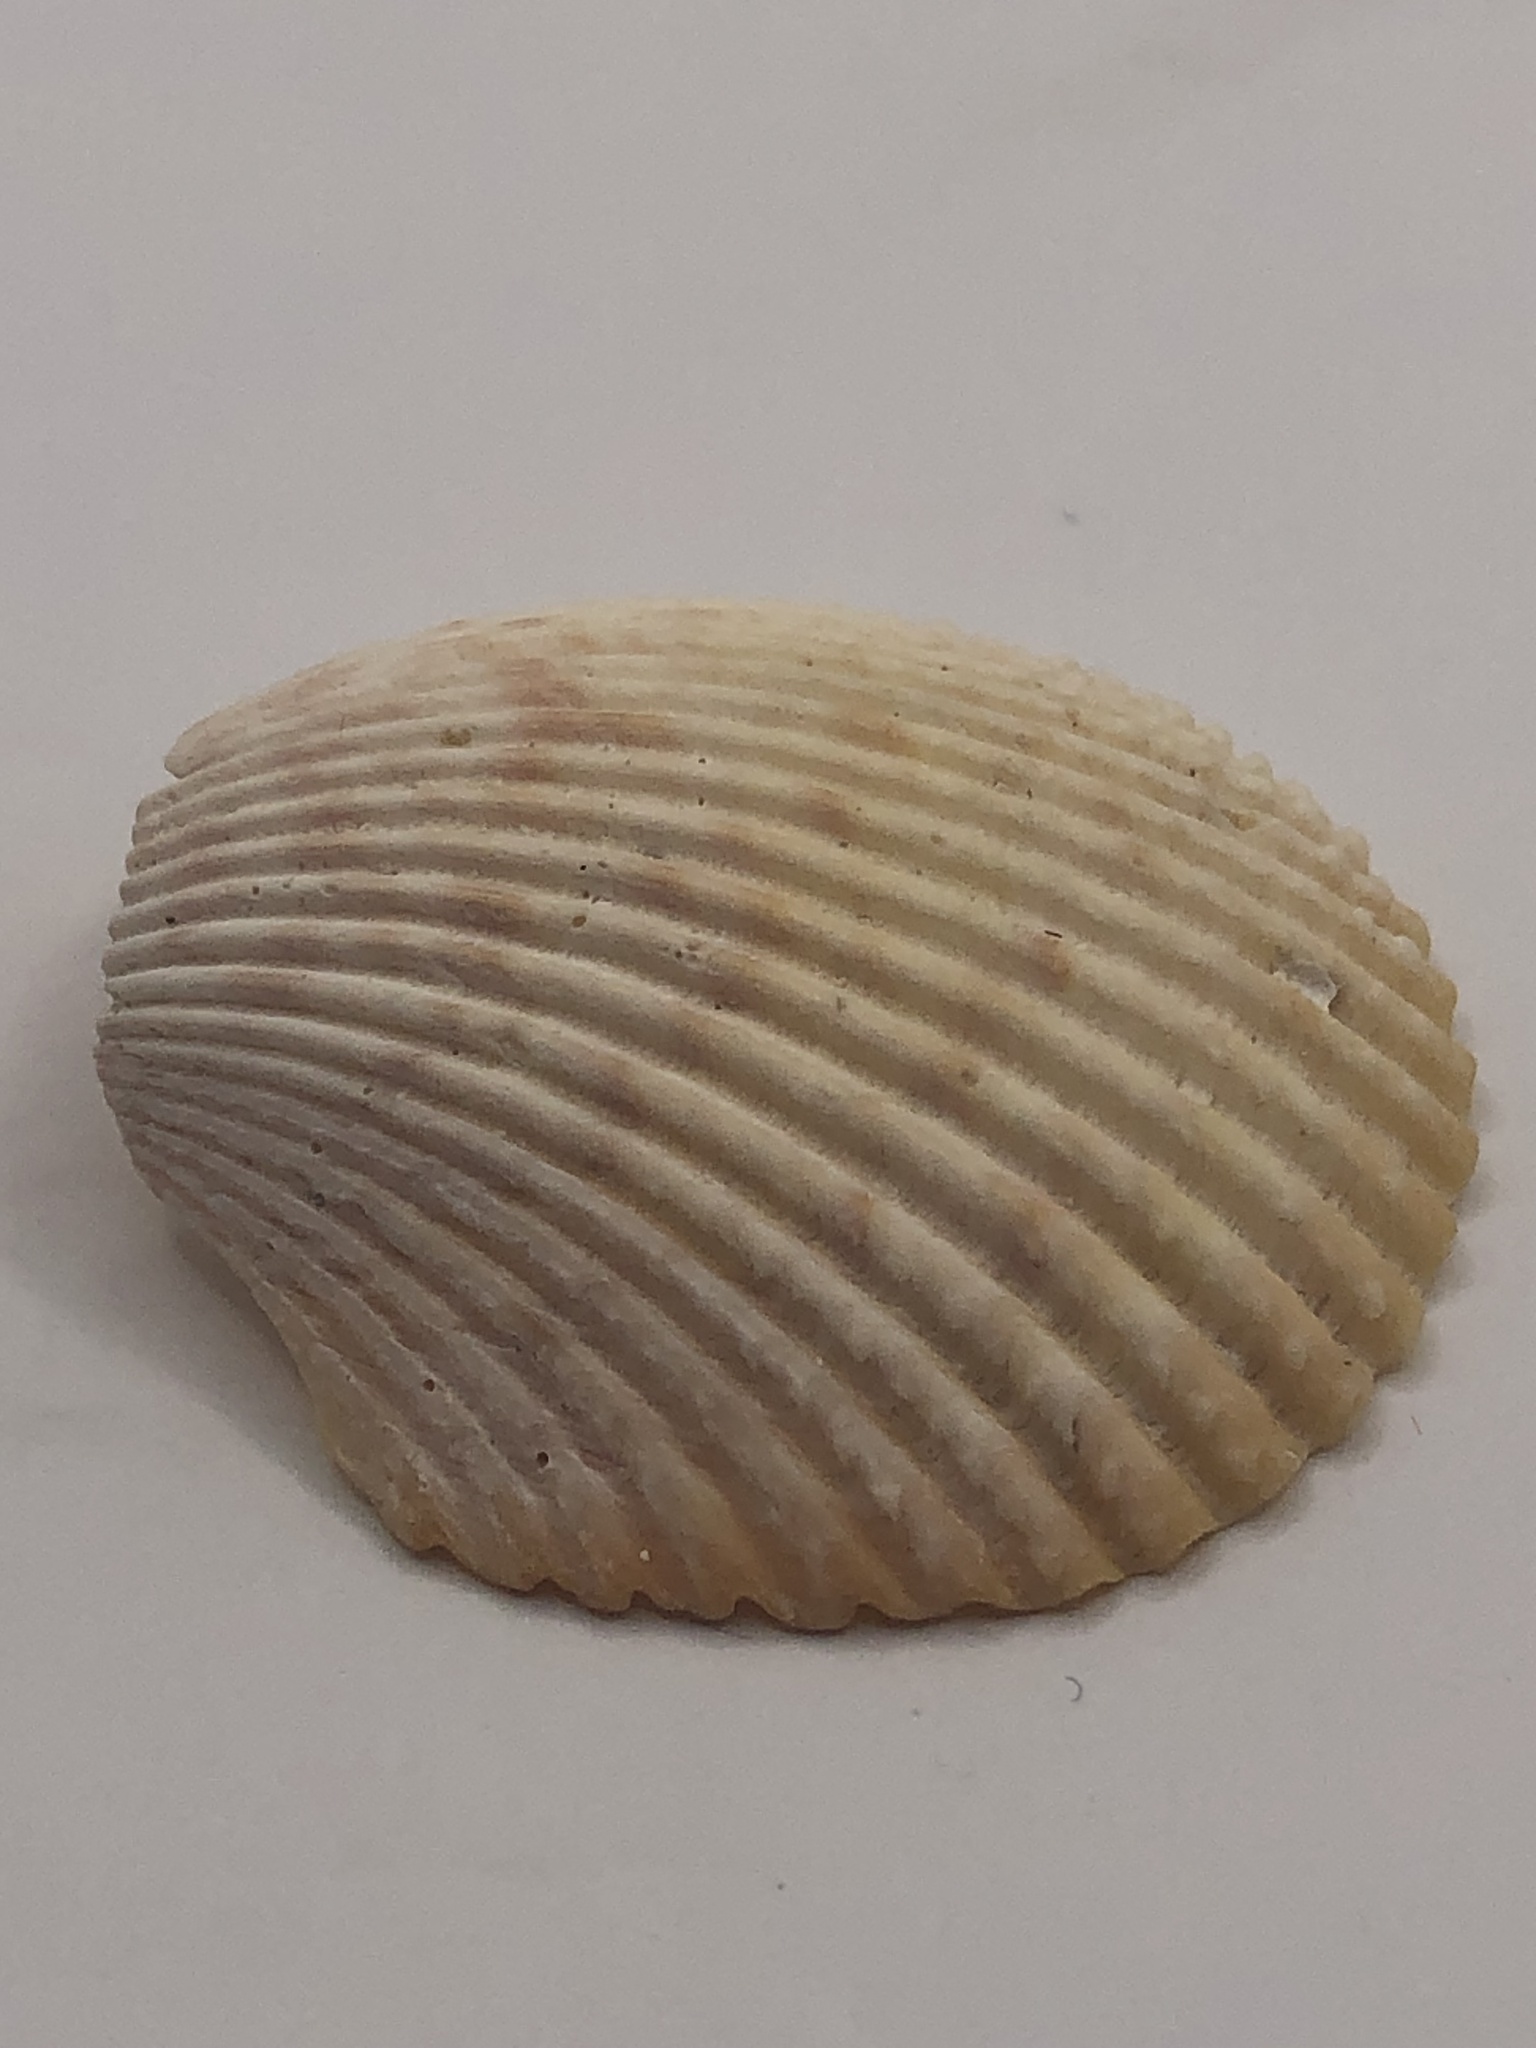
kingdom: Animalia
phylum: Mollusca
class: Bivalvia
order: Cardiida
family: Cardiidae
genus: Dallocardia
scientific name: Dallocardia muricata
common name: Yellow pricklycockle
